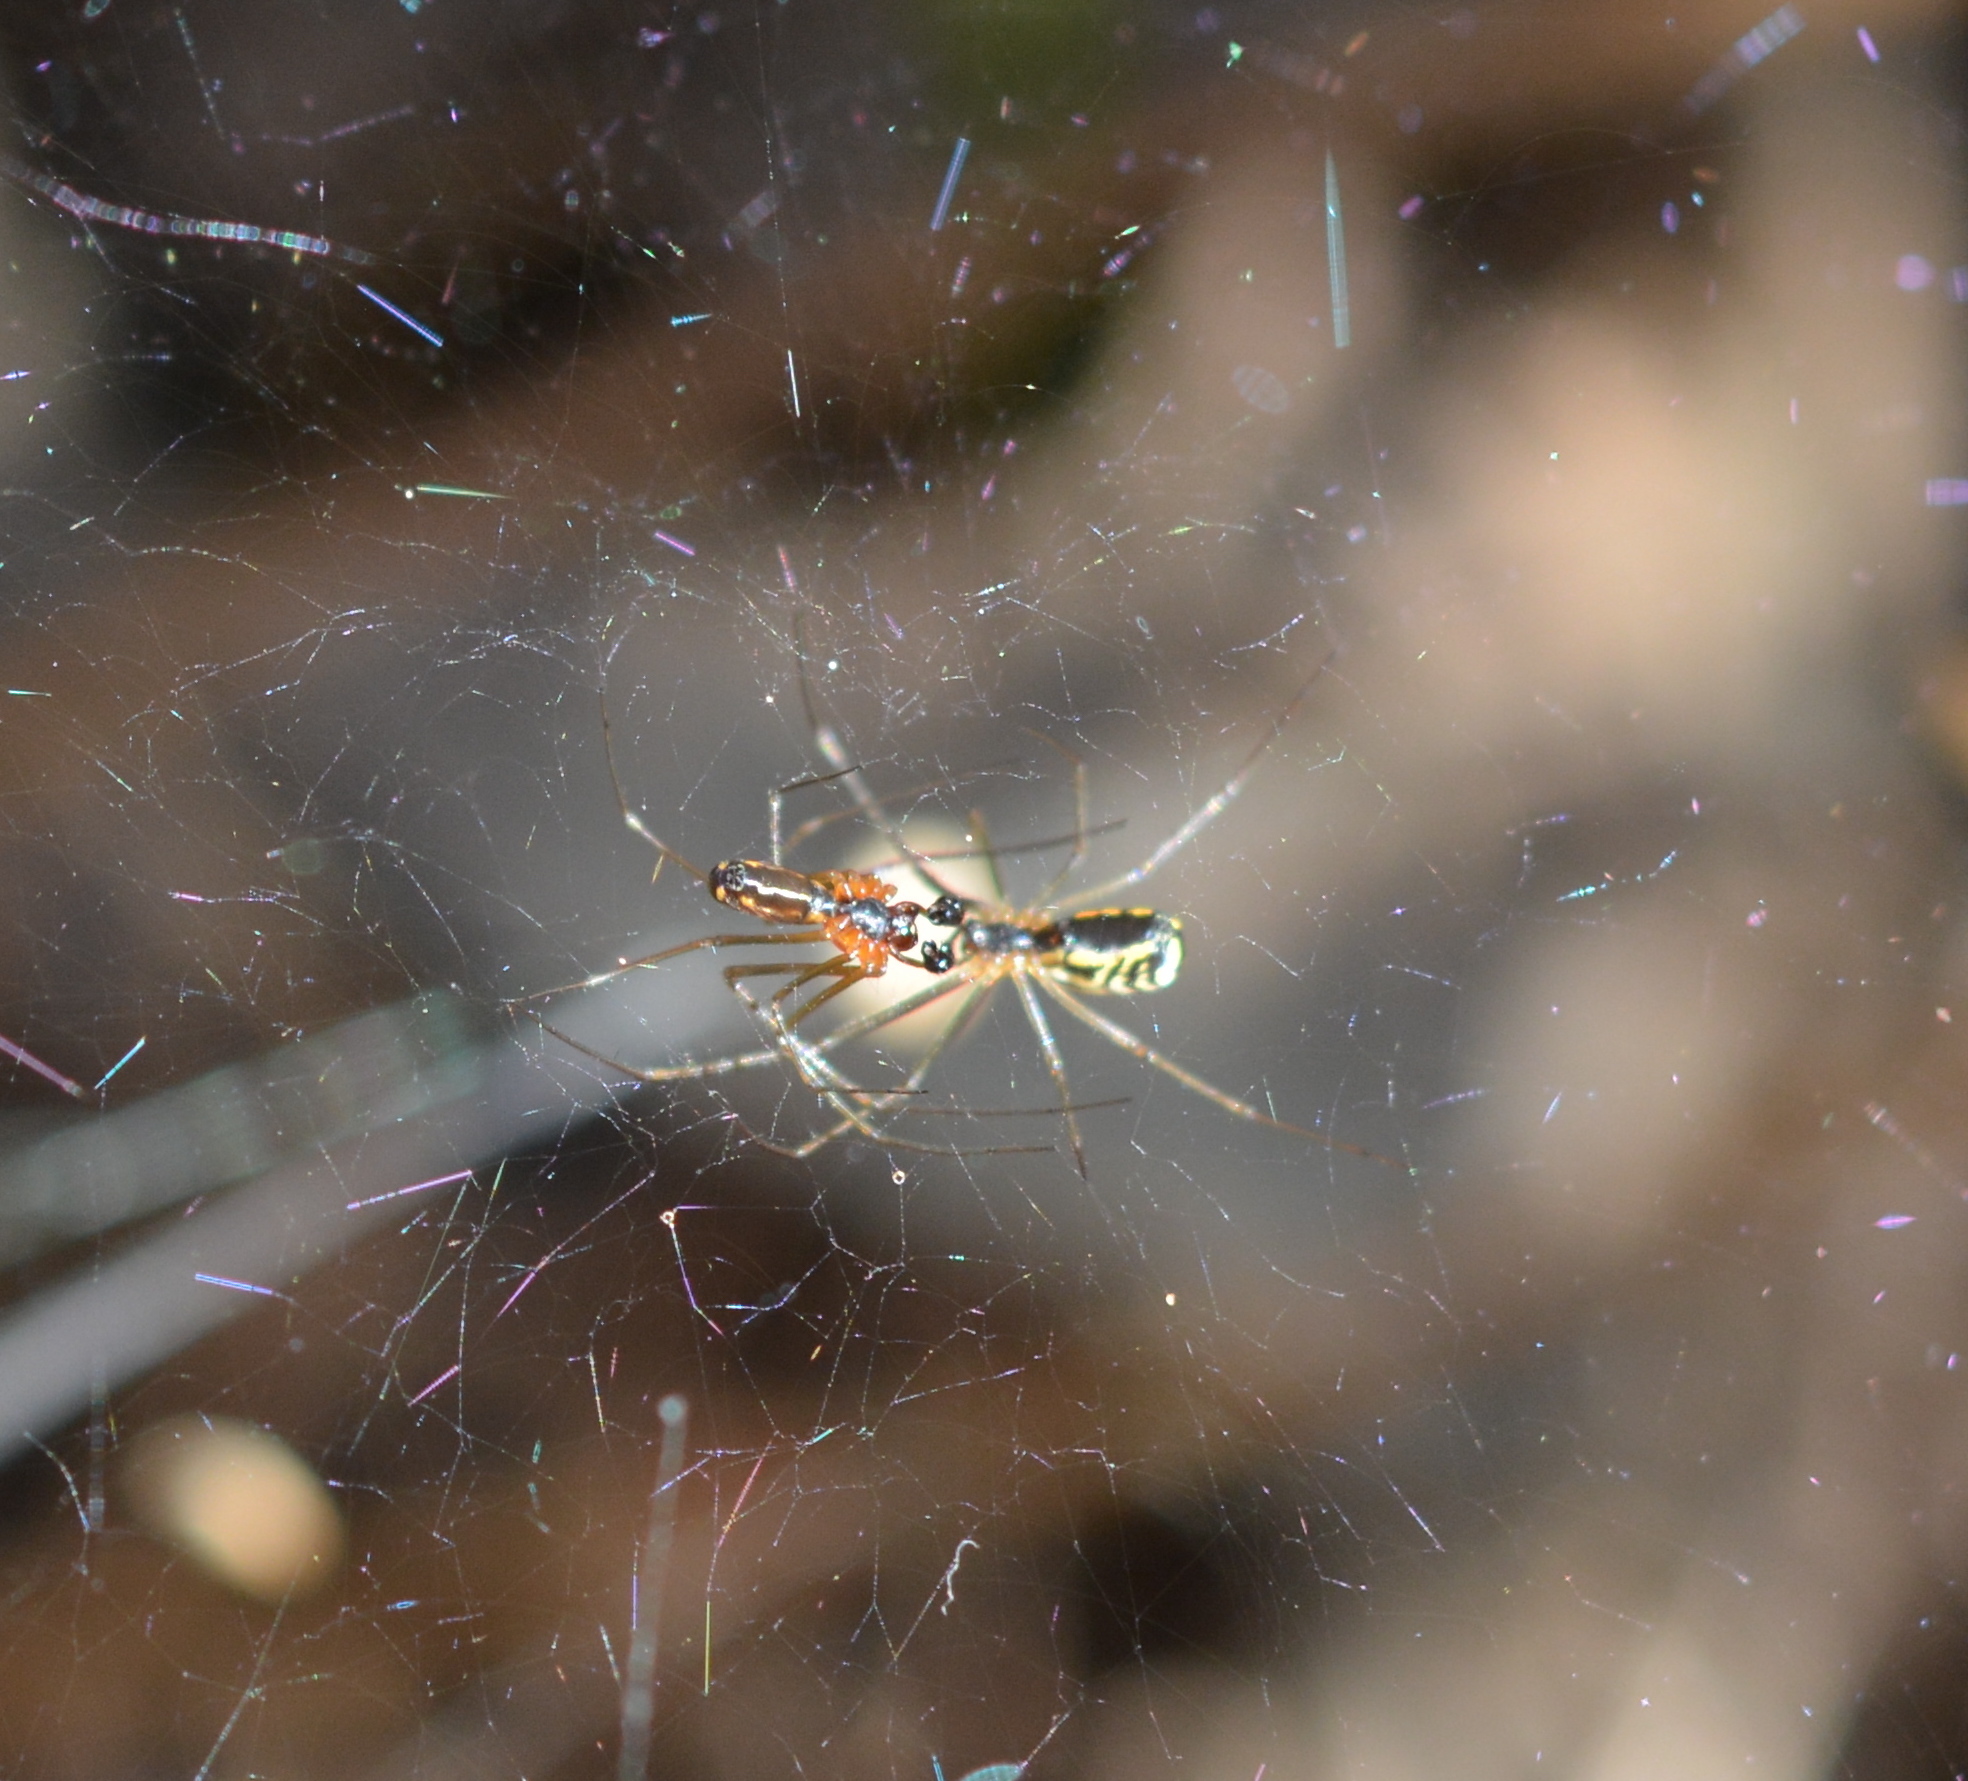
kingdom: Animalia
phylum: Arthropoda
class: Arachnida
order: Araneae
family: Linyphiidae
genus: Neriene
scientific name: Neriene radiata
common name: Filmy dome spider
